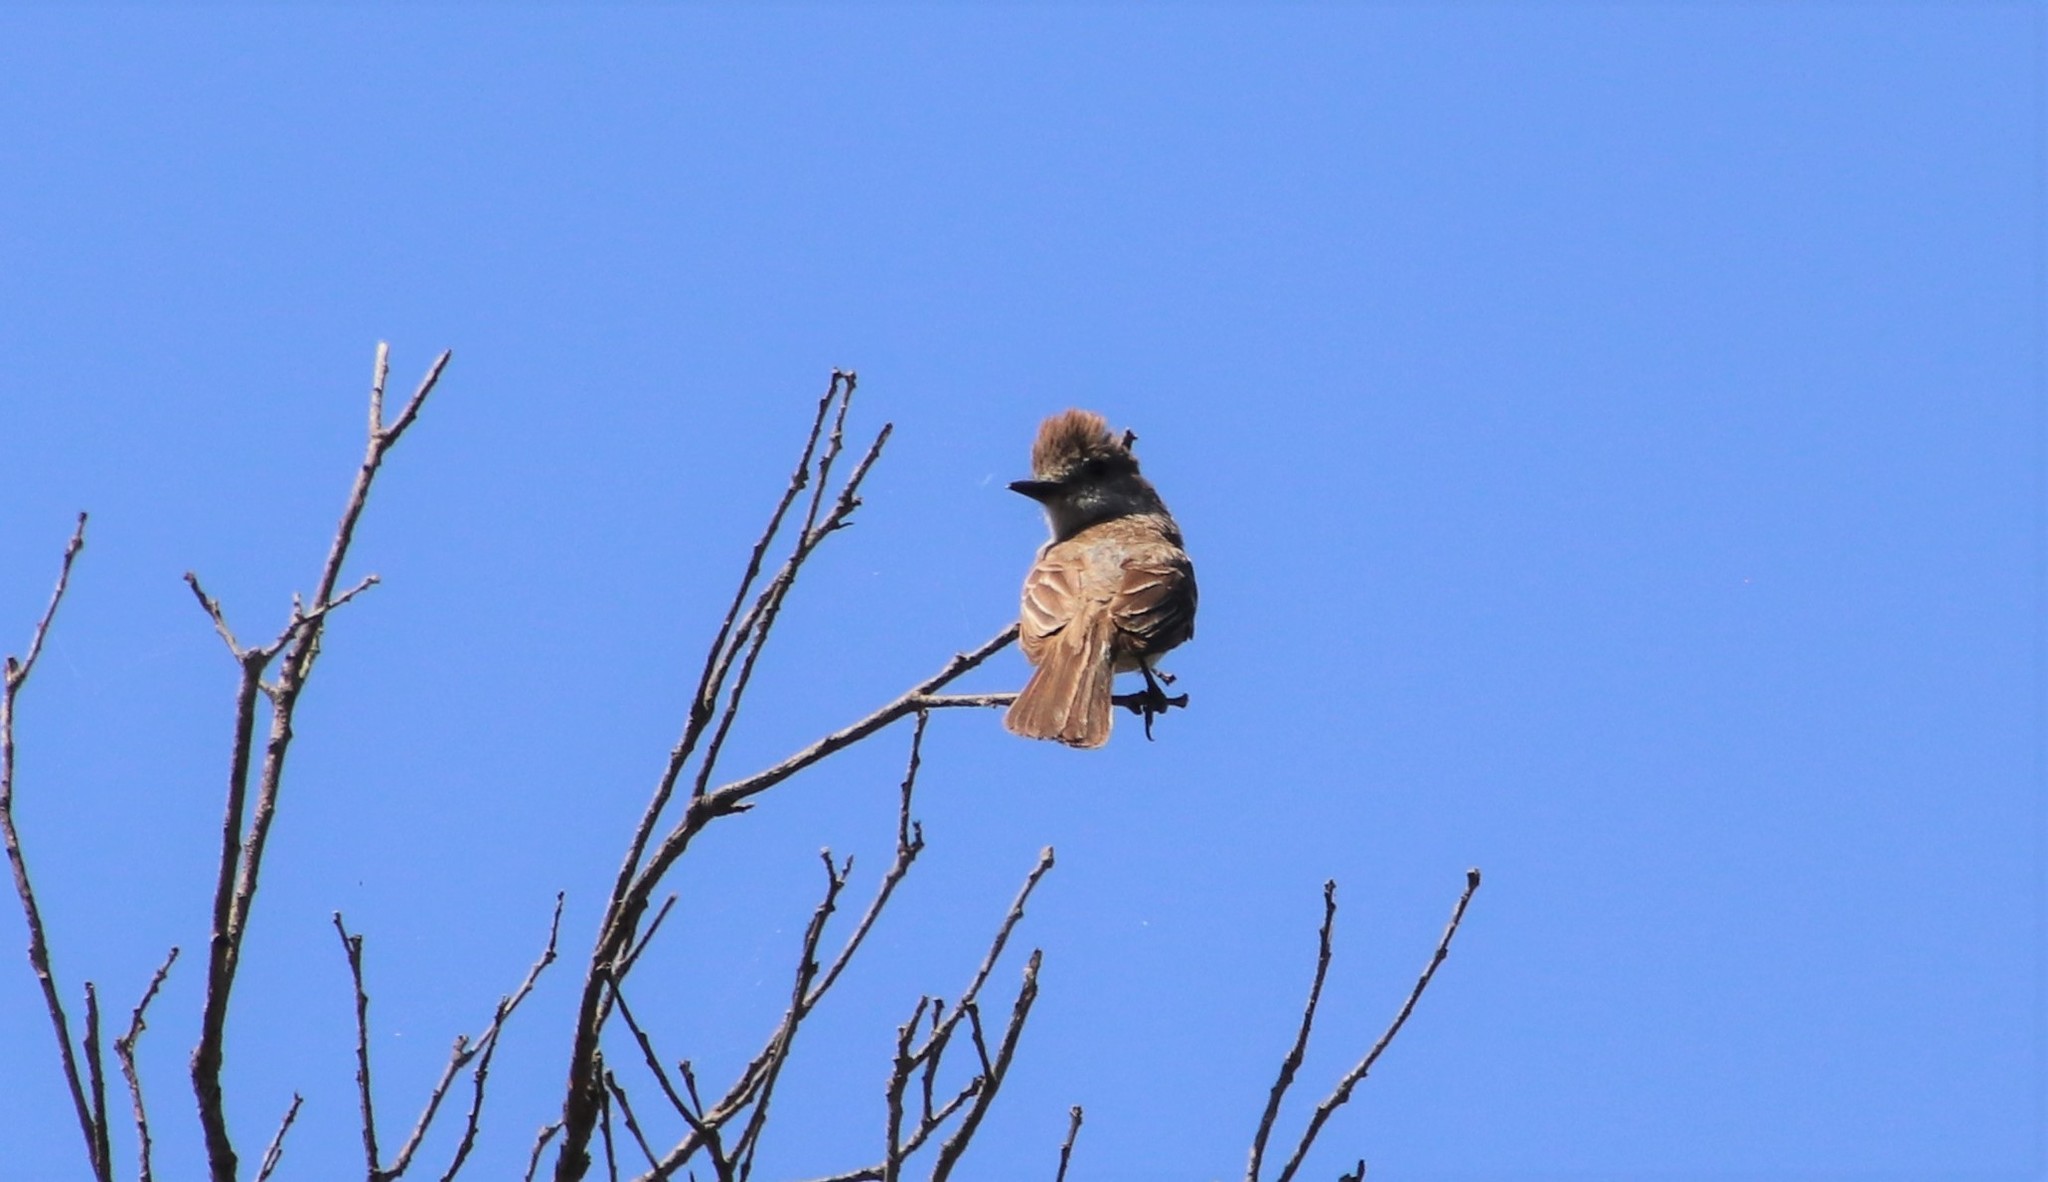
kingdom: Animalia
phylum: Chordata
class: Aves
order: Passeriformes
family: Tyrannidae
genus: Myiarchus
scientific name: Myiarchus cinerascens
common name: Ash-throated flycatcher
